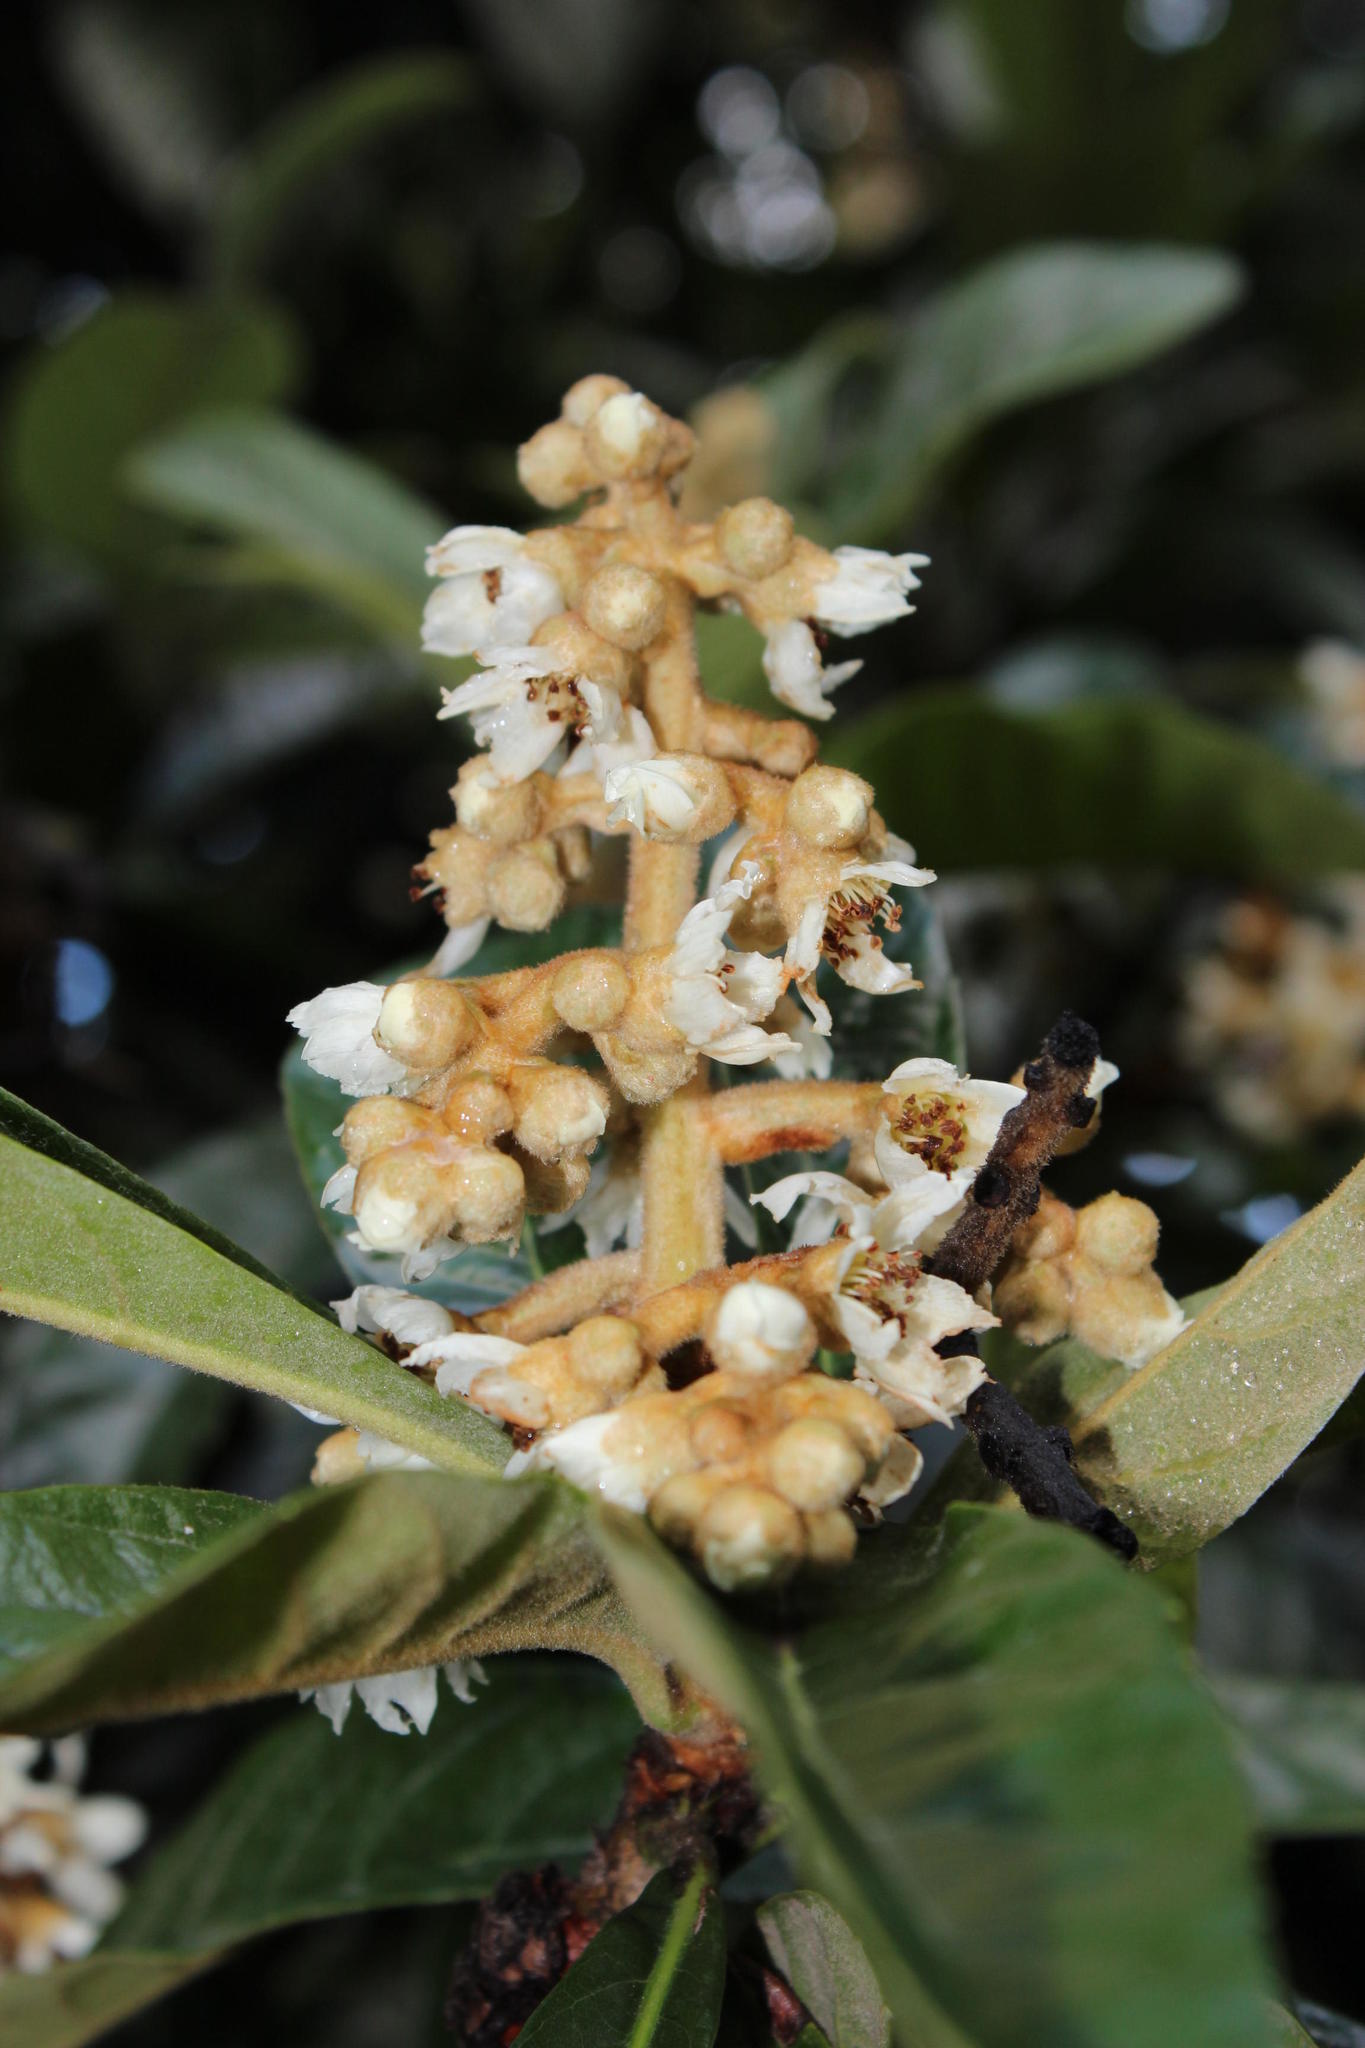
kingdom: Plantae
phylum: Tracheophyta
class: Magnoliopsida
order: Rosales
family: Rosaceae
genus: Rhaphiolepis
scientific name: Rhaphiolepis bibas
